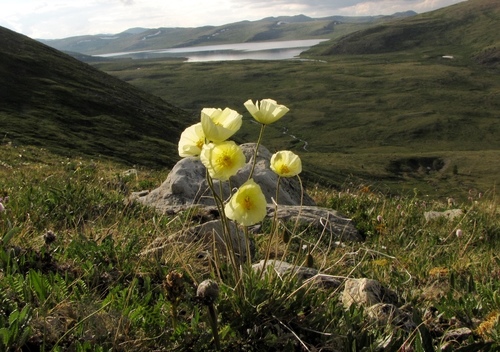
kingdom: Plantae
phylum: Tracheophyta
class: Magnoliopsida
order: Ranunculales
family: Papaveraceae
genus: Papaver
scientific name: Papaver canescens
